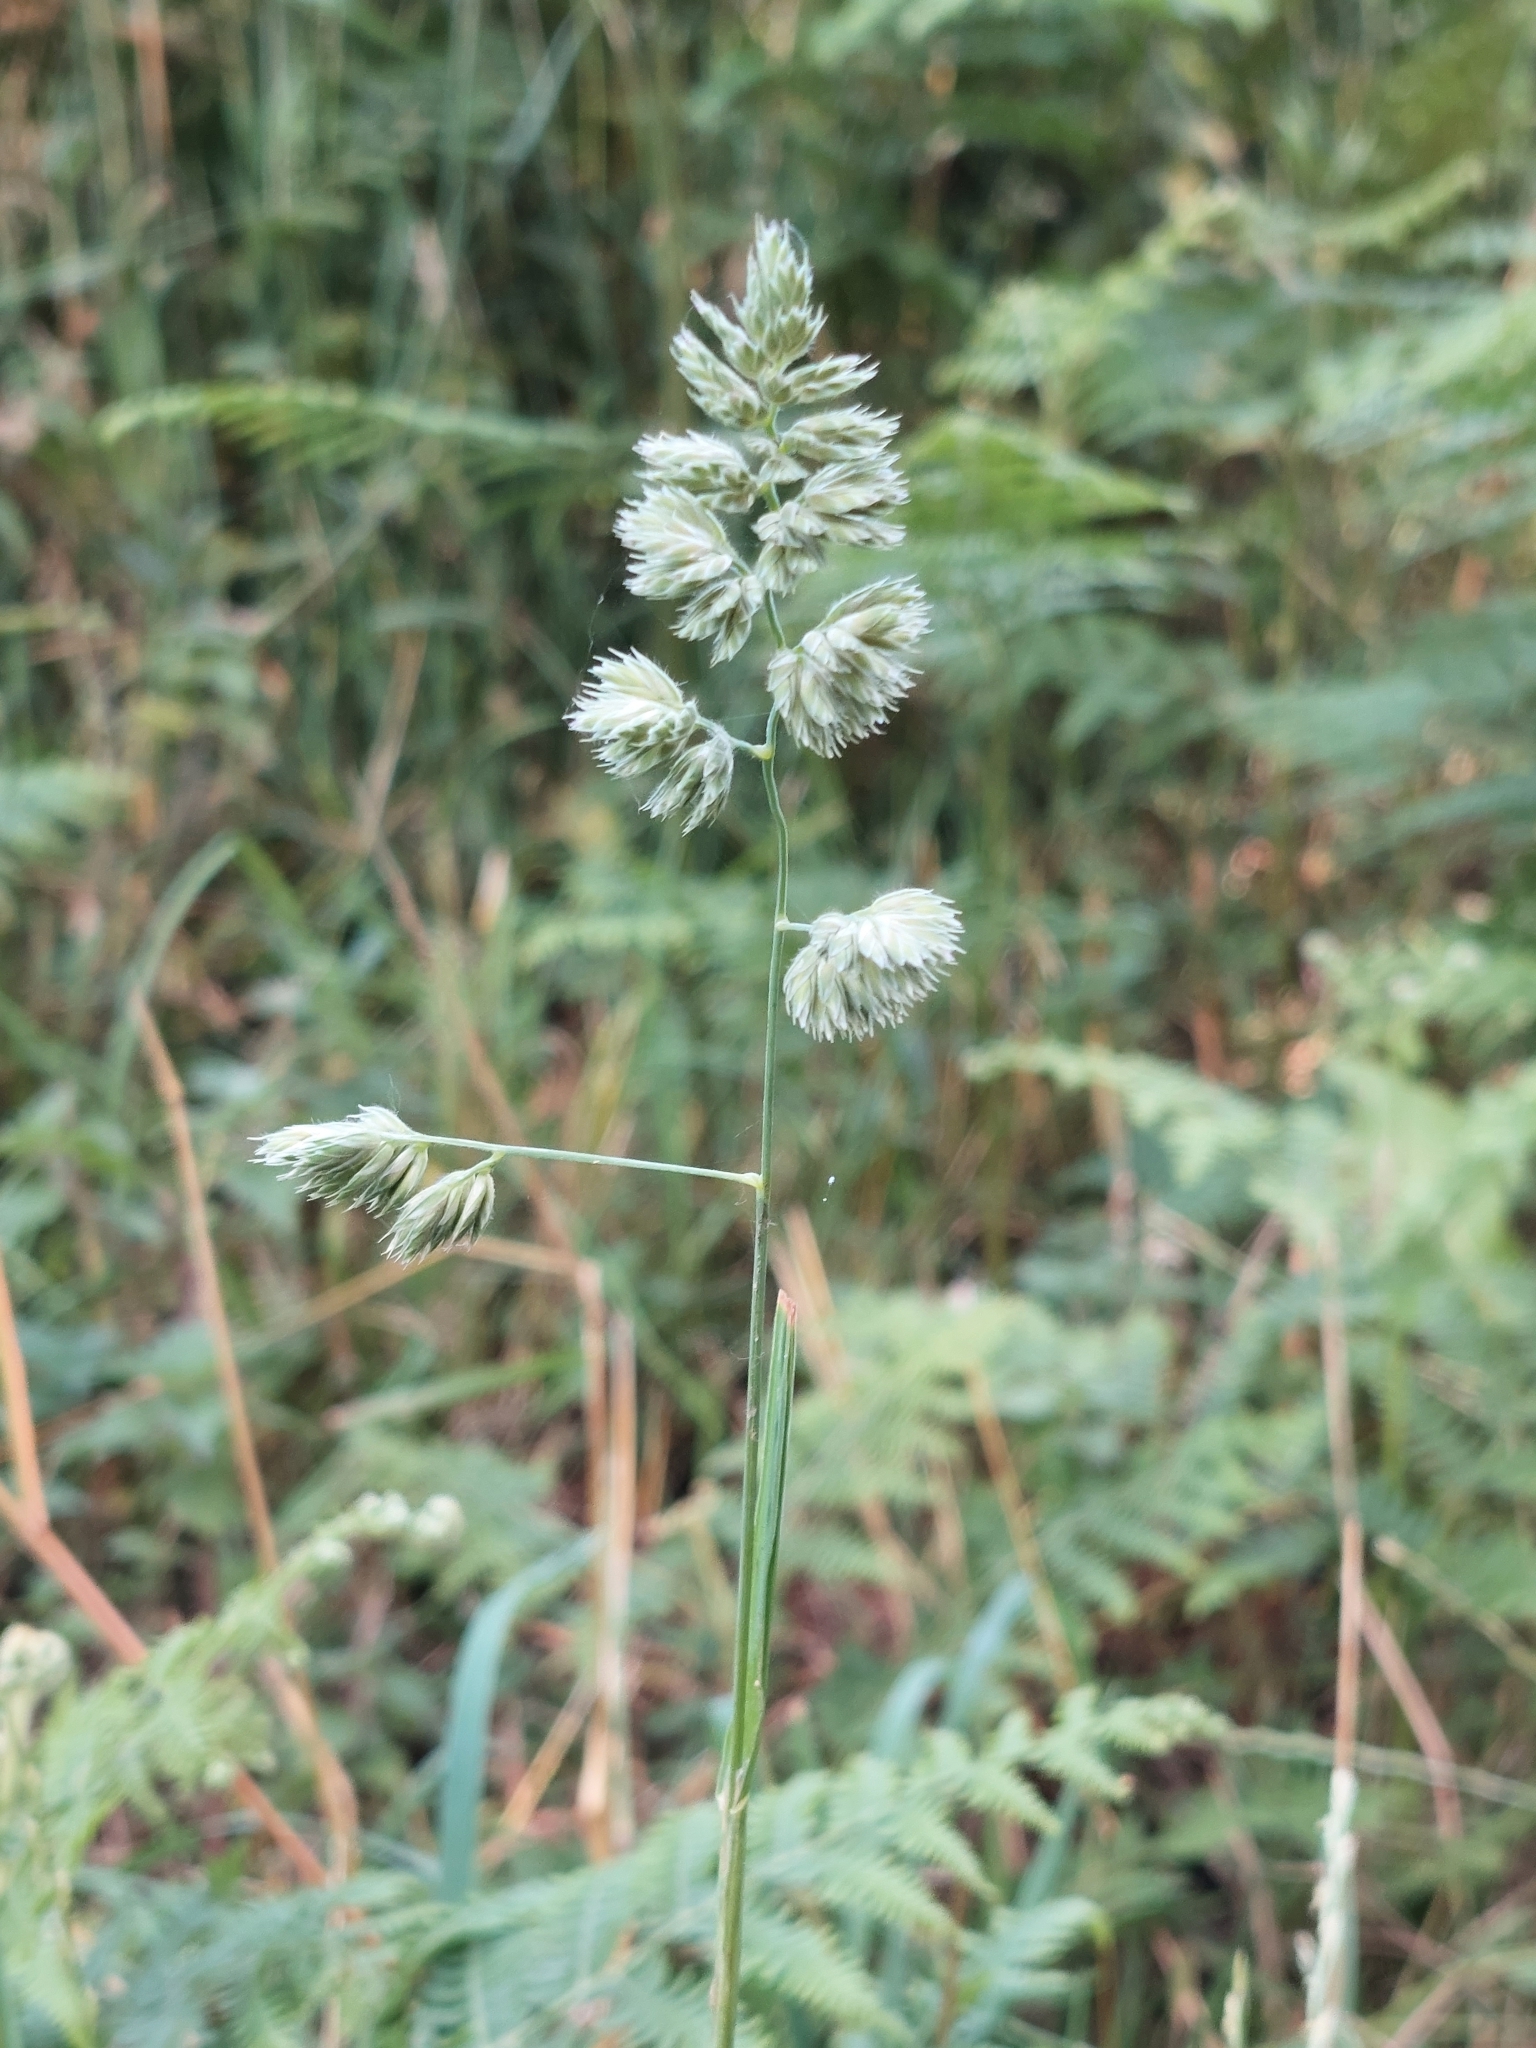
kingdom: Plantae
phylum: Tracheophyta
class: Liliopsida
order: Poales
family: Poaceae
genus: Dactylis
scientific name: Dactylis glomerata
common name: Orchardgrass
